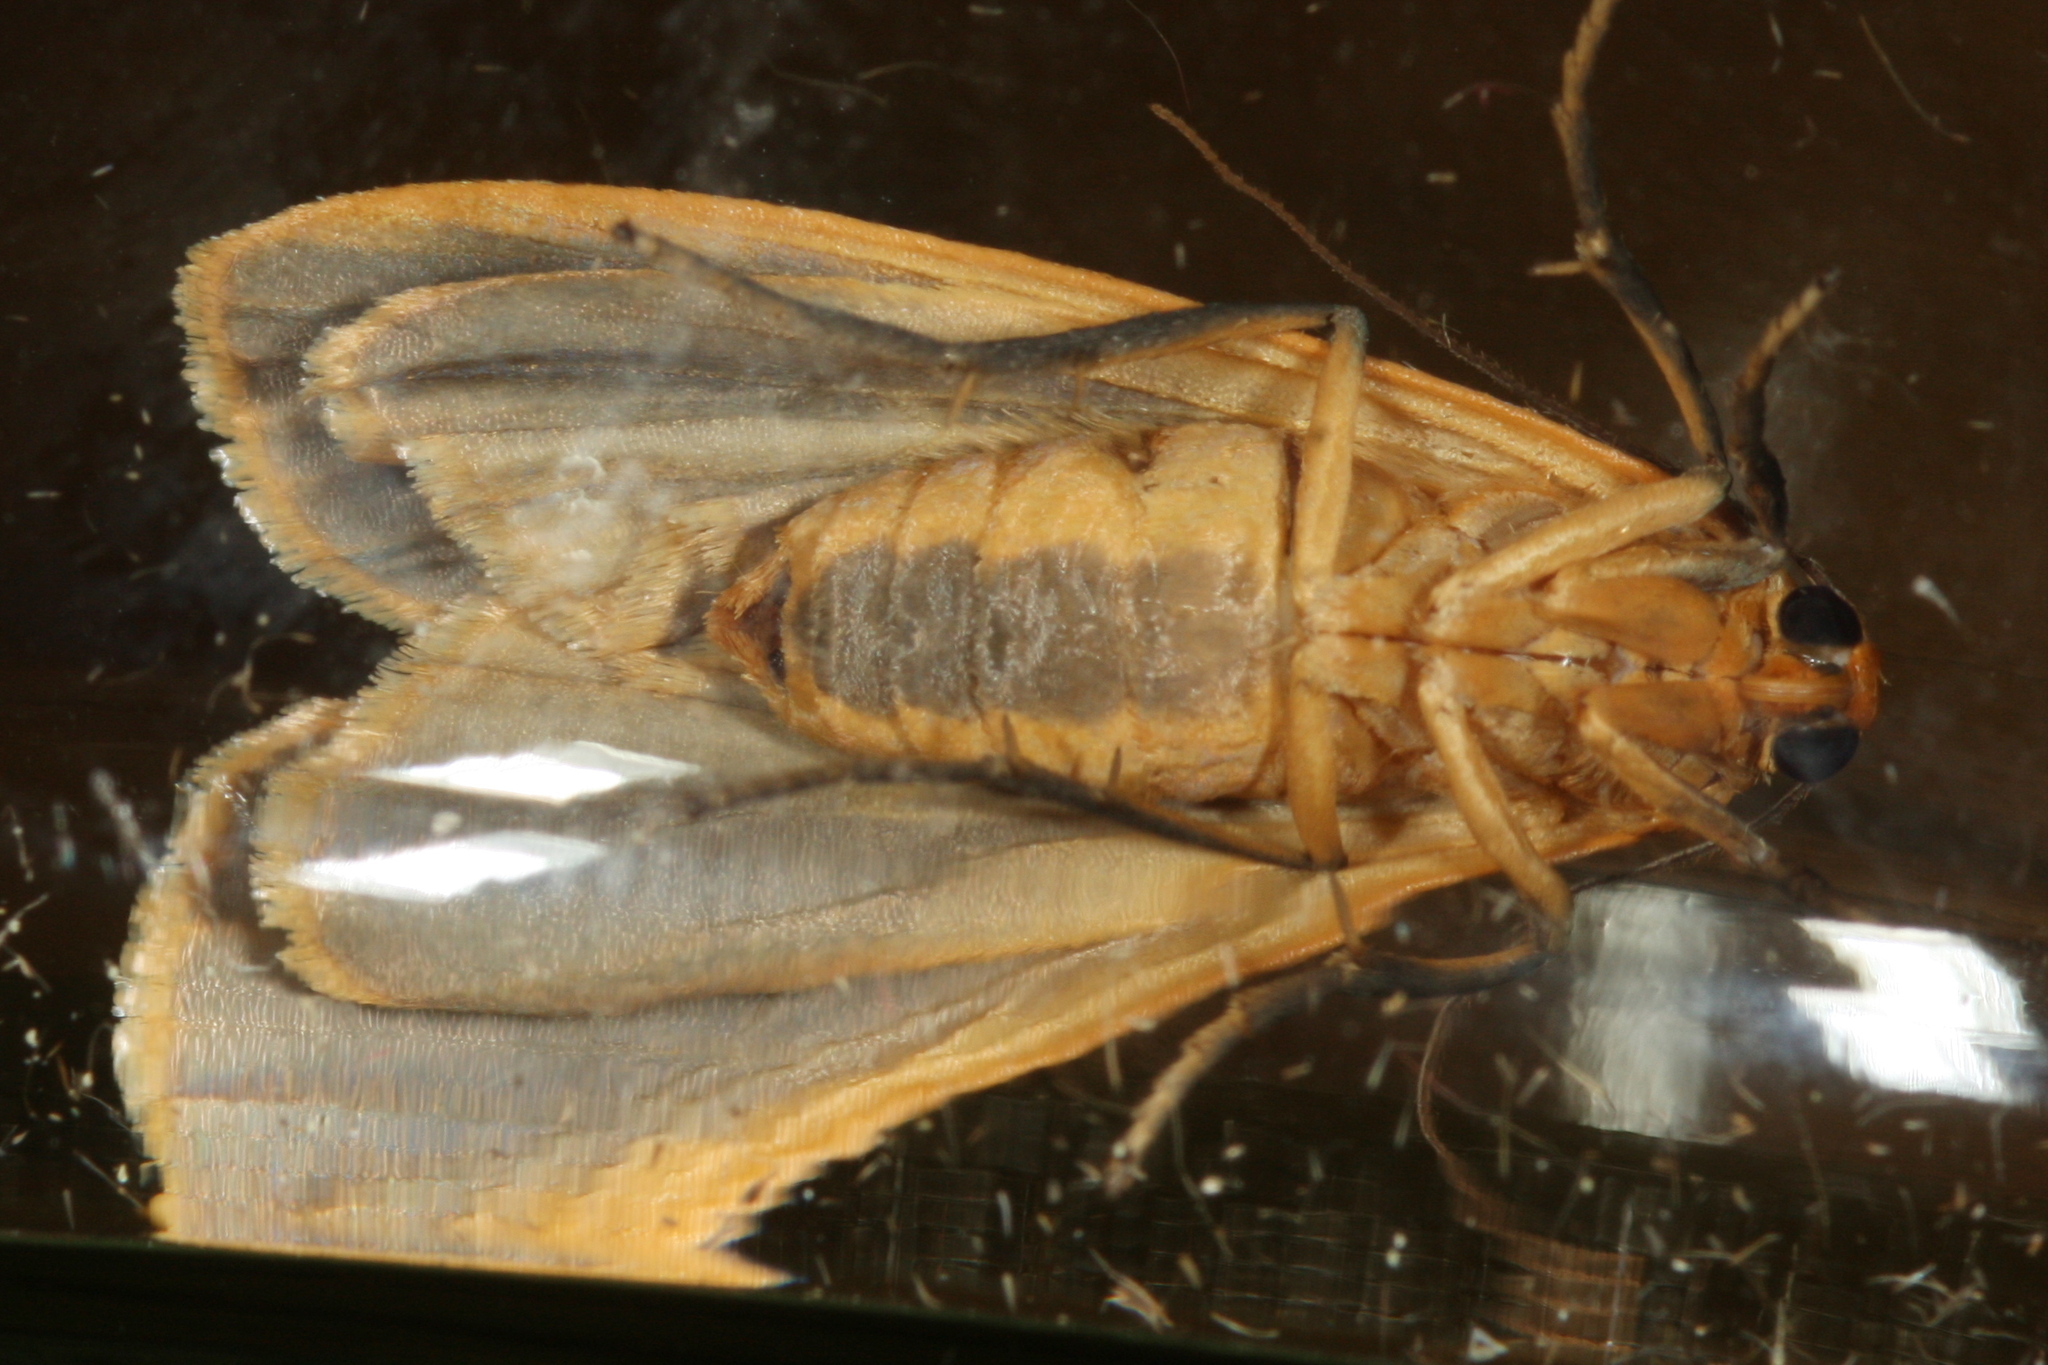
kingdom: Animalia
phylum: Arthropoda
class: Insecta
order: Lepidoptera
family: Erebidae
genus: Katha
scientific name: Katha depressa
